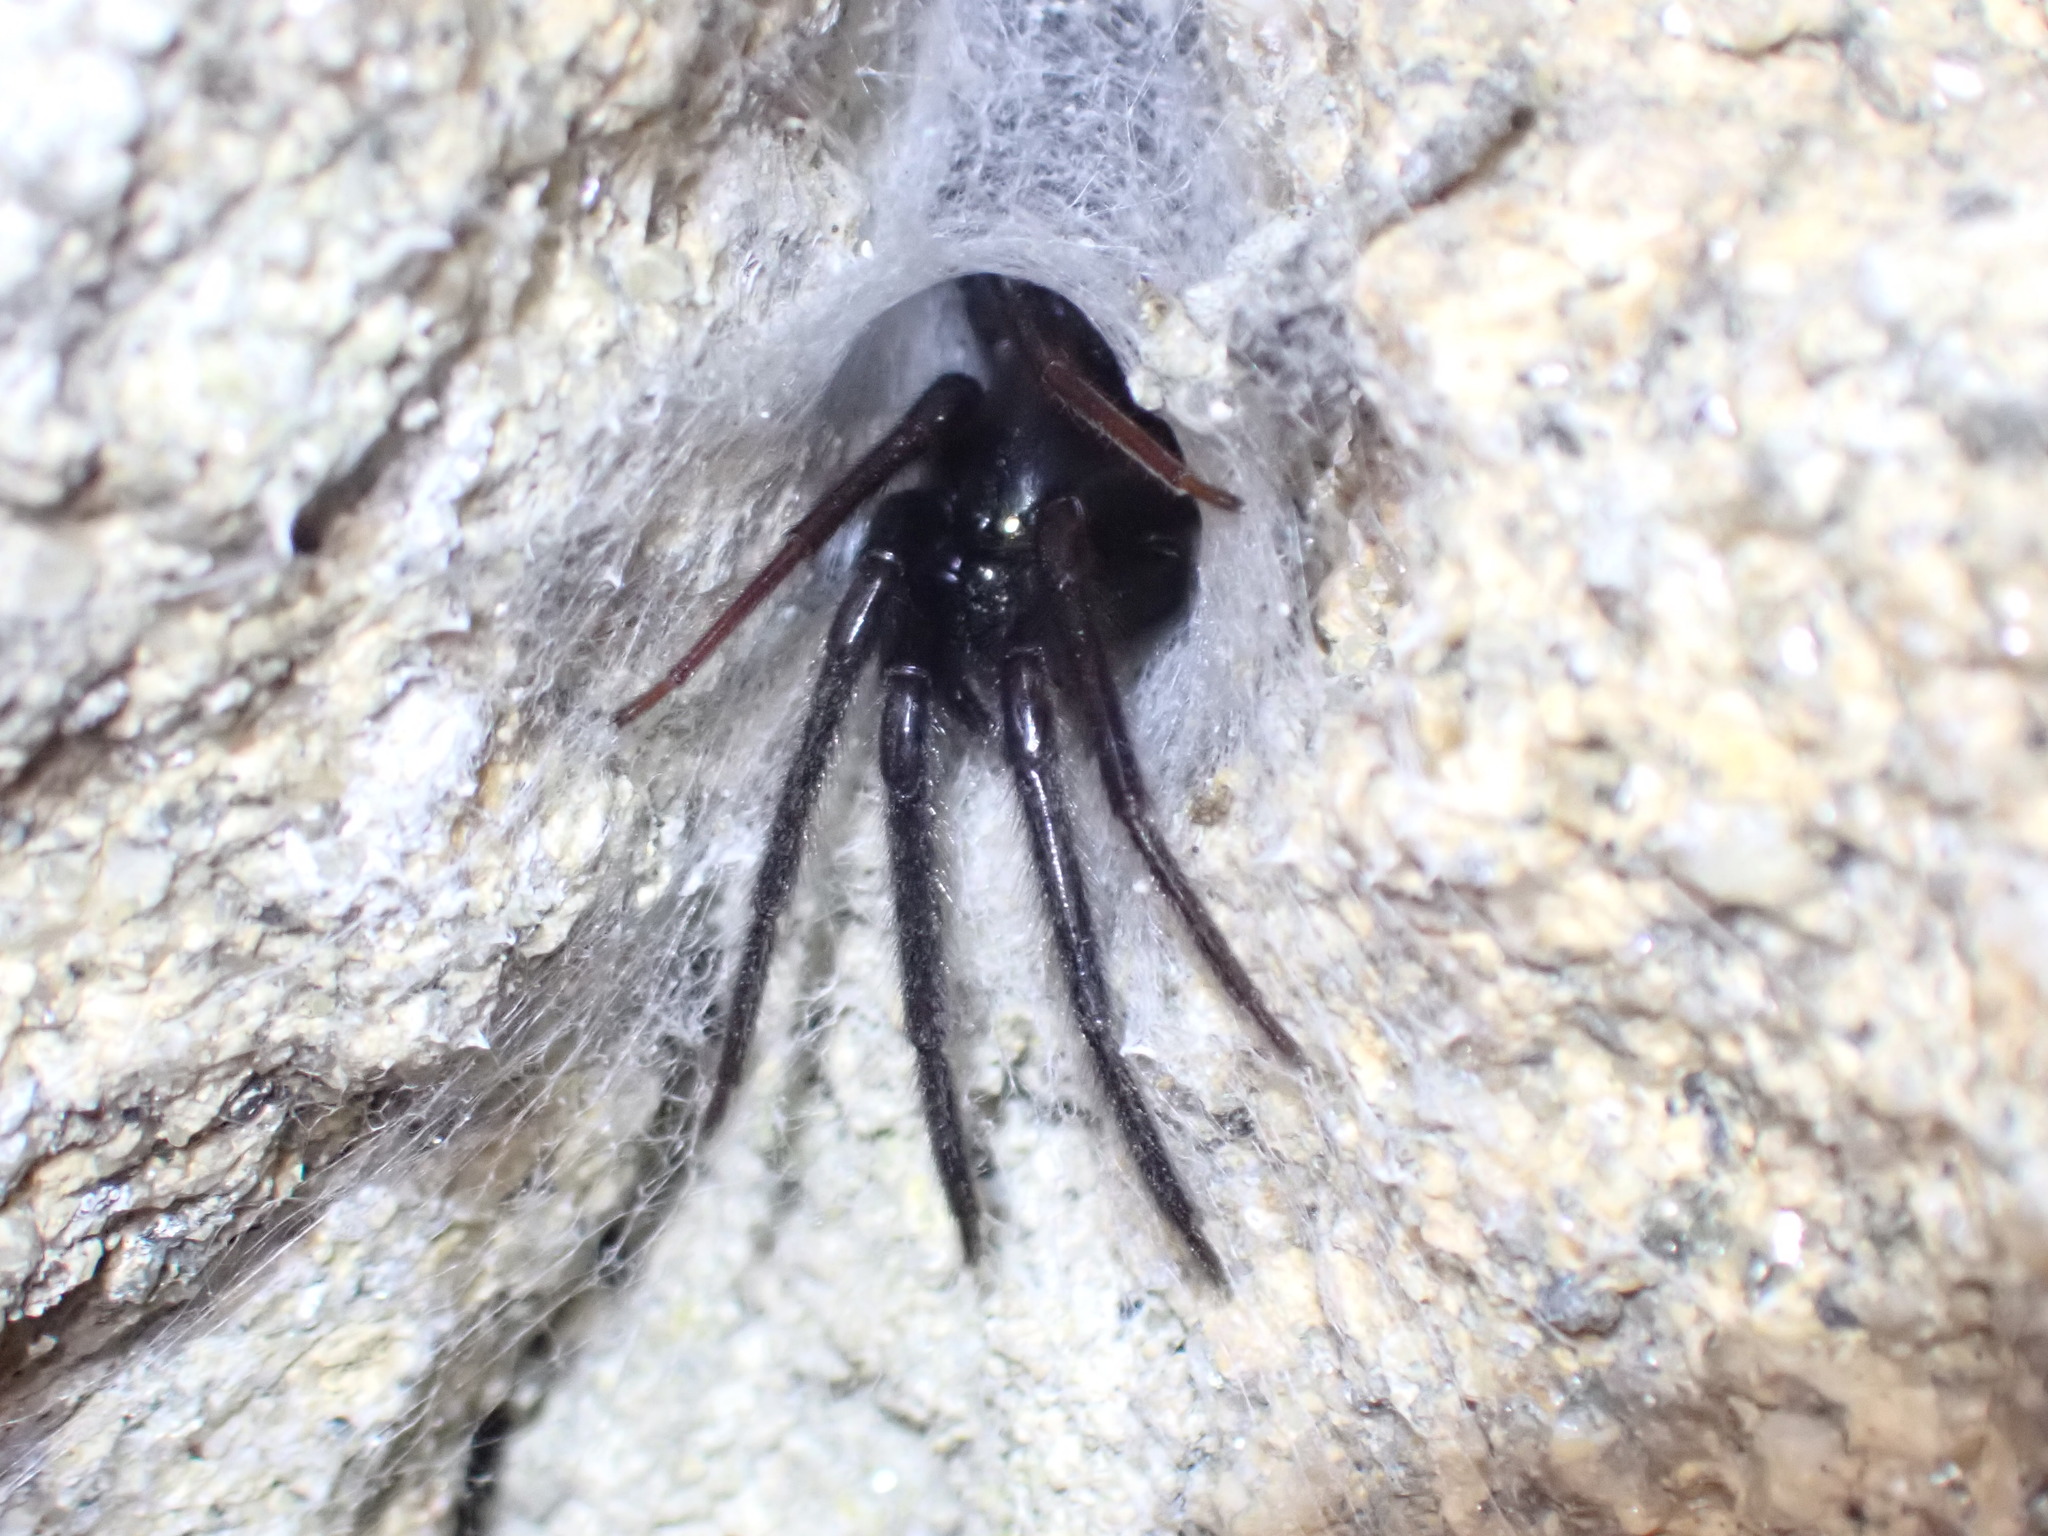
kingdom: Animalia
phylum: Arthropoda
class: Arachnida
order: Araneae
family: Segestriidae
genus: Segestria
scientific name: Segestria florentina
